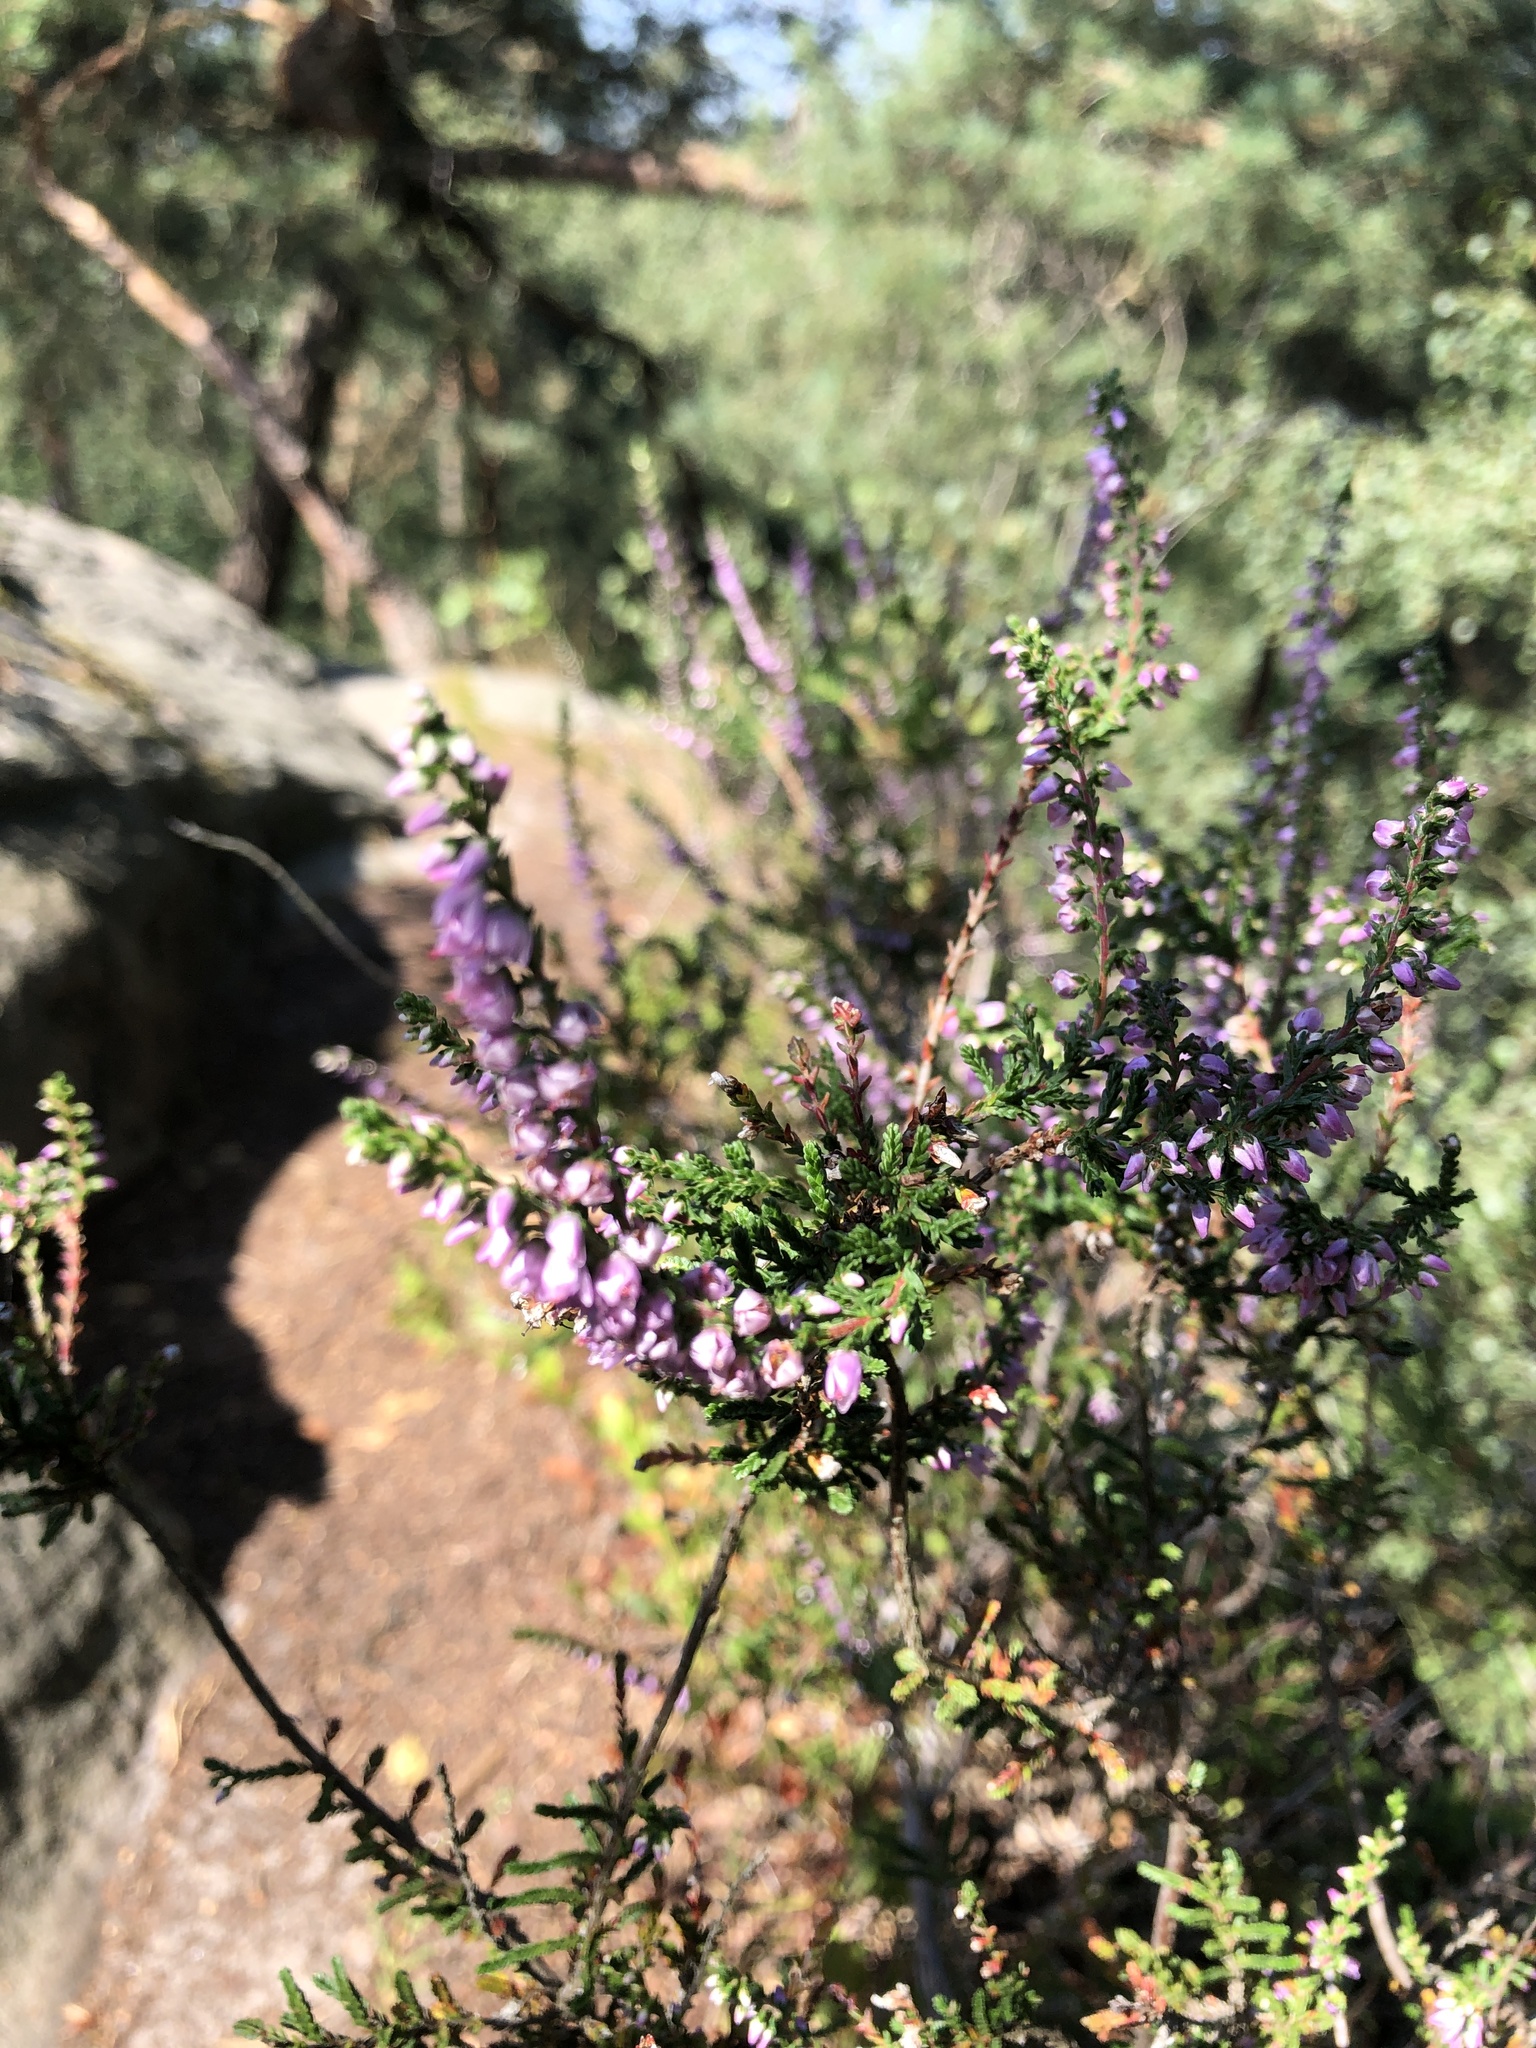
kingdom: Plantae
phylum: Tracheophyta
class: Magnoliopsida
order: Ericales
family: Ericaceae
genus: Calluna
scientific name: Calluna vulgaris
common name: Heather
